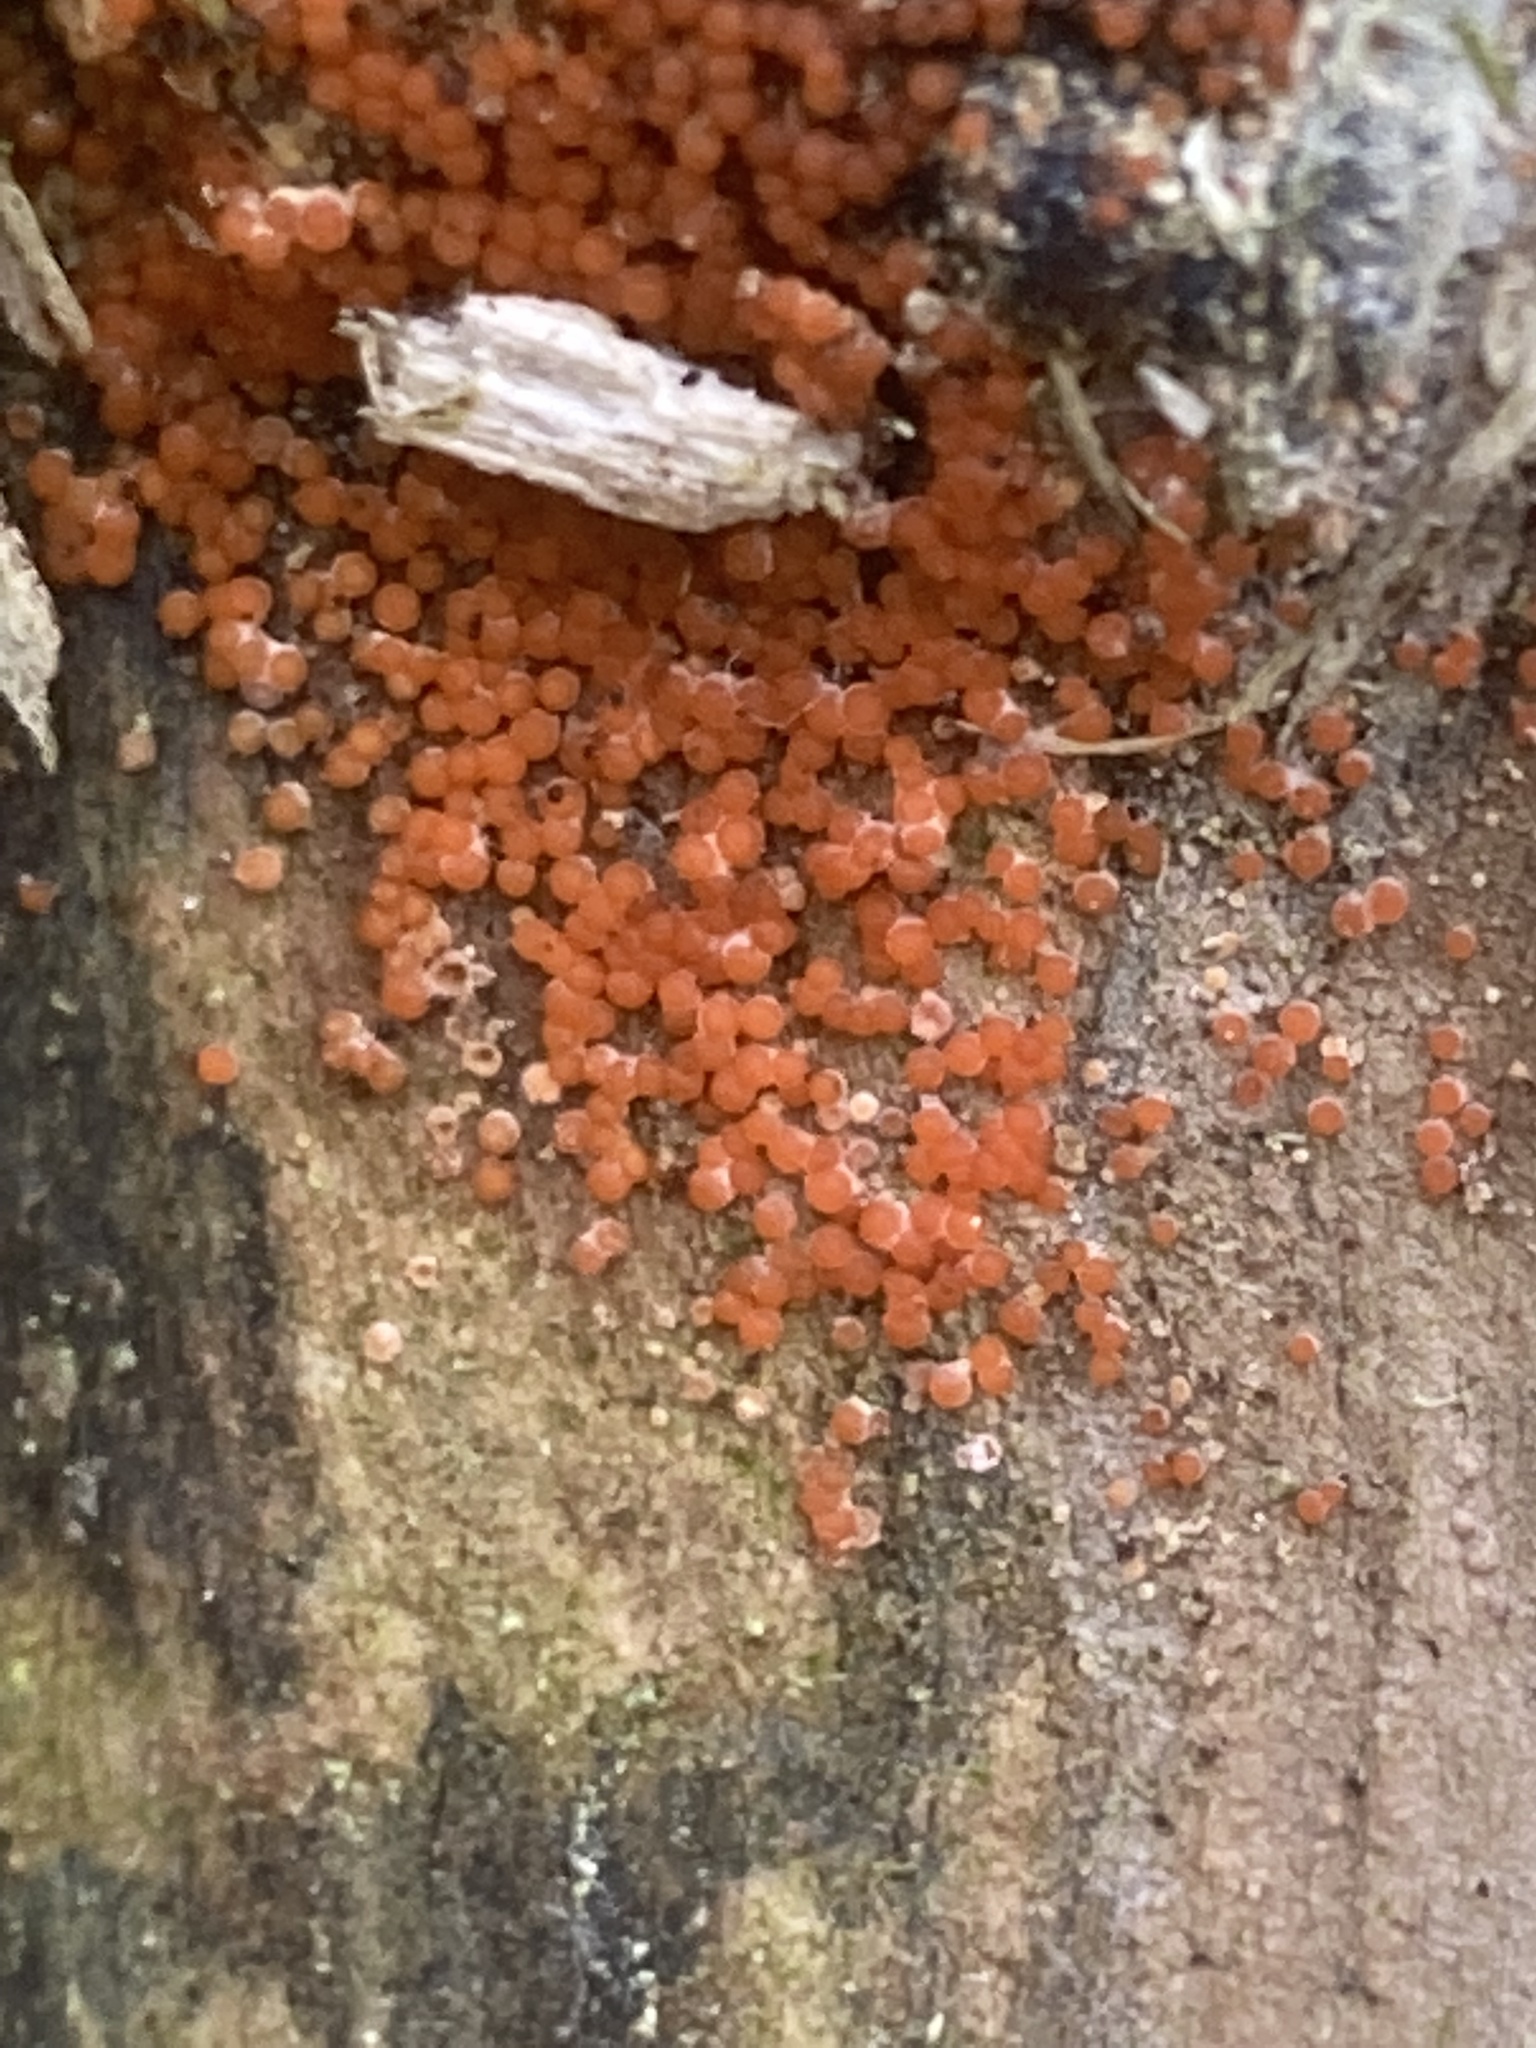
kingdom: Fungi
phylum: Ascomycota
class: Sordariomycetes
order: Hypocreales
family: Nectriaceae
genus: Hydropisphaera
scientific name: Hydropisphaera peziza
